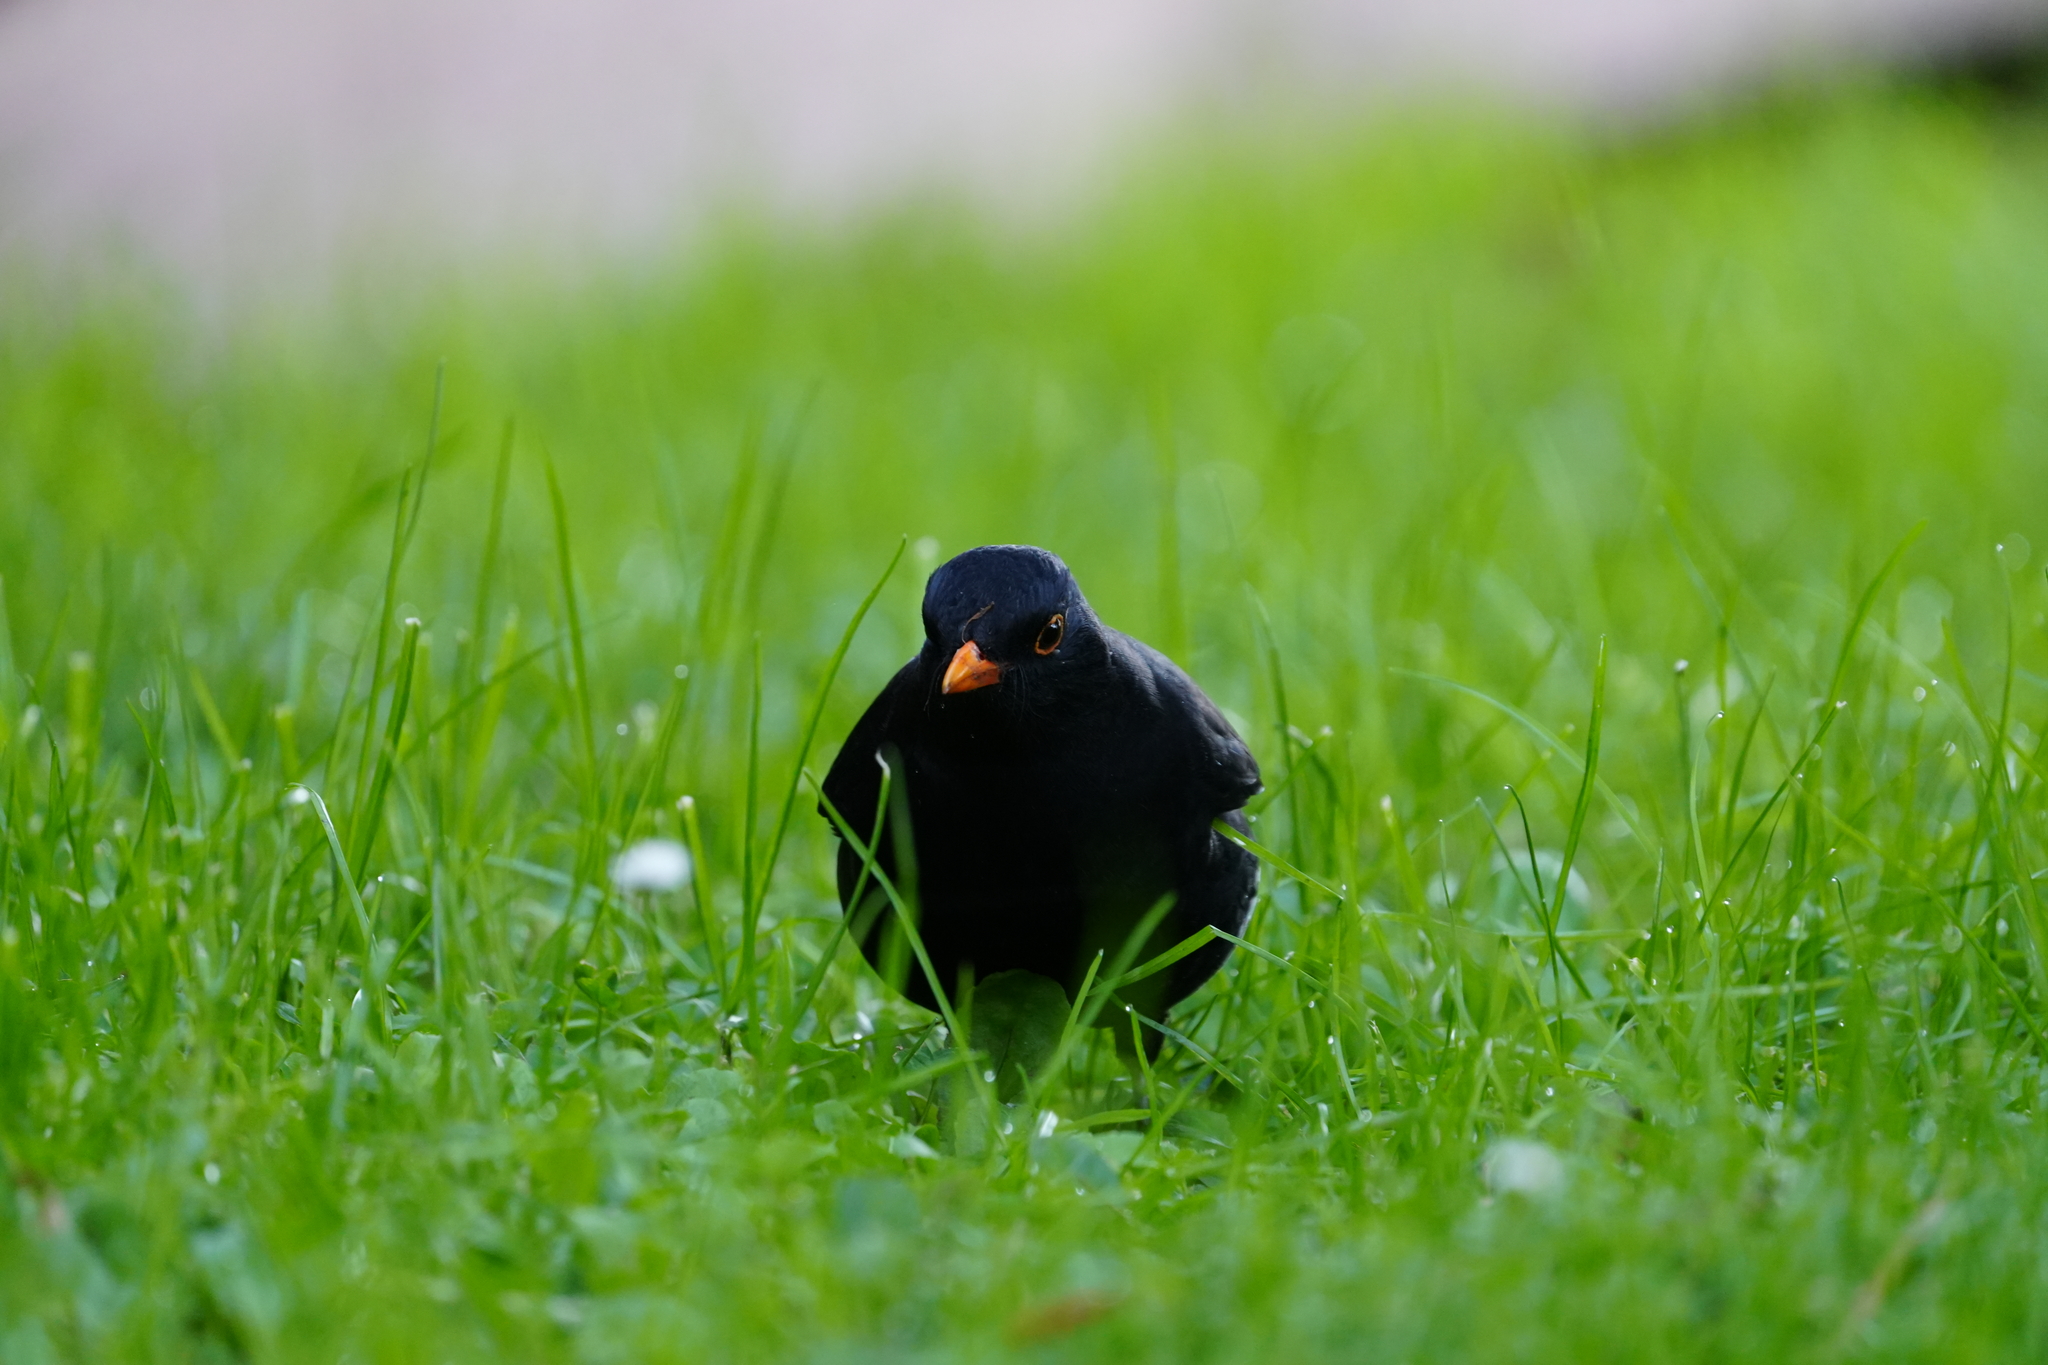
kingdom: Animalia
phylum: Chordata
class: Aves
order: Passeriformes
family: Turdidae
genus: Turdus
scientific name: Turdus merula
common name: Common blackbird
